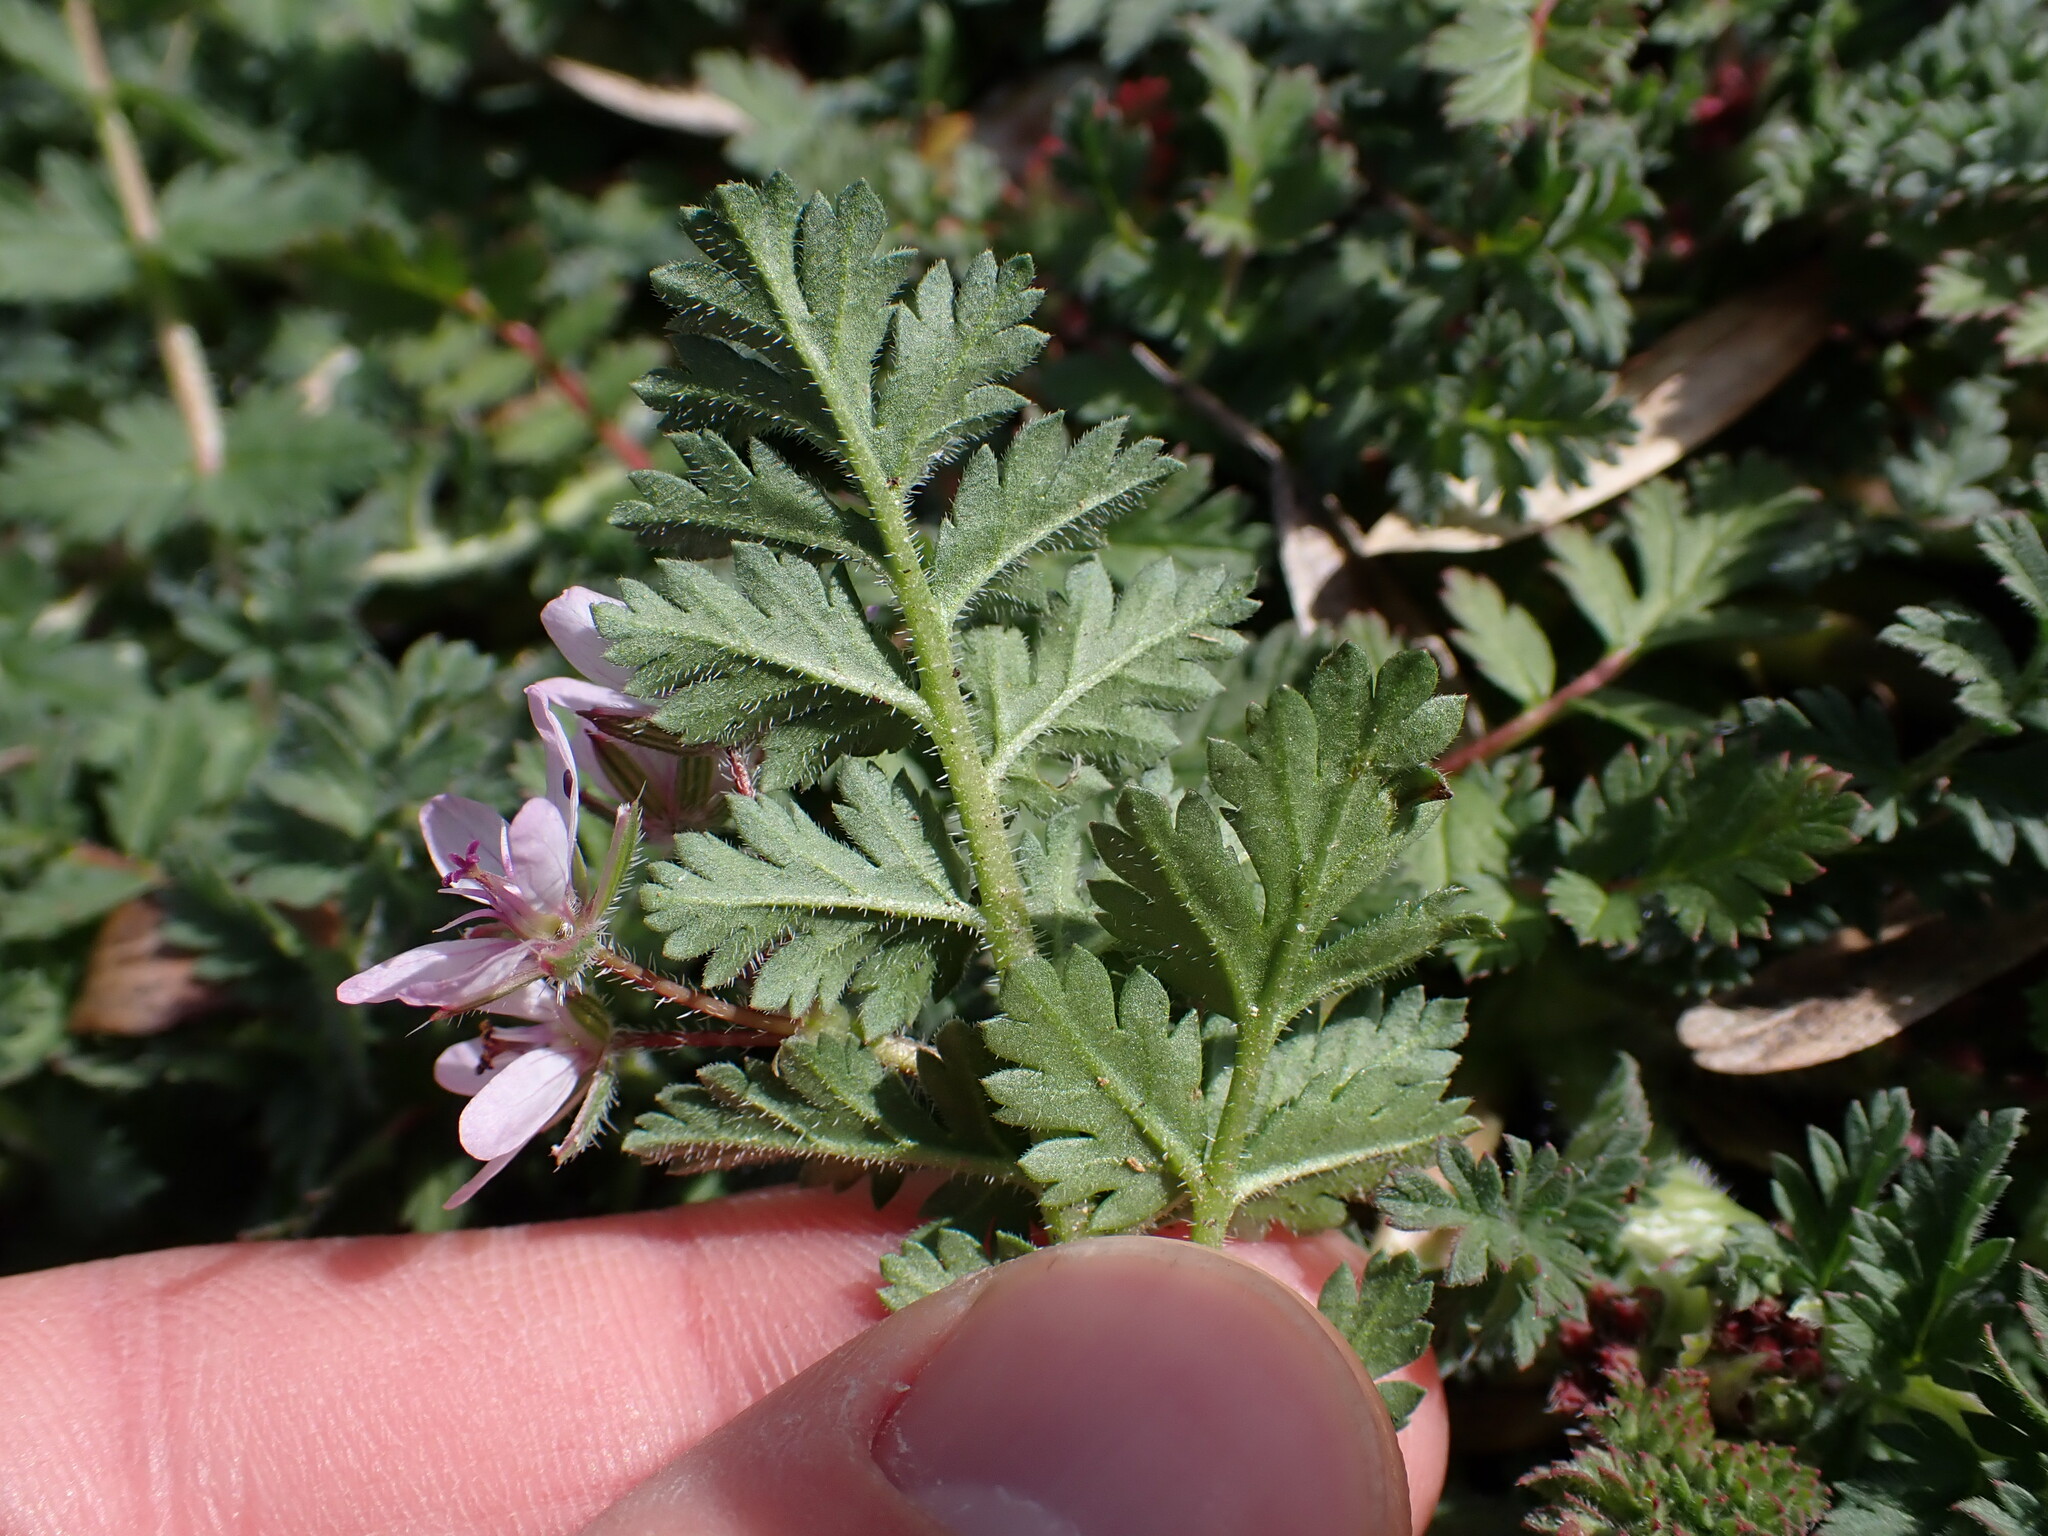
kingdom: Plantae
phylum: Tracheophyta
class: Magnoliopsida
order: Geraniales
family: Geraniaceae
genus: Erodium
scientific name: Erodium cicutarium
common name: Common stork's-bill
